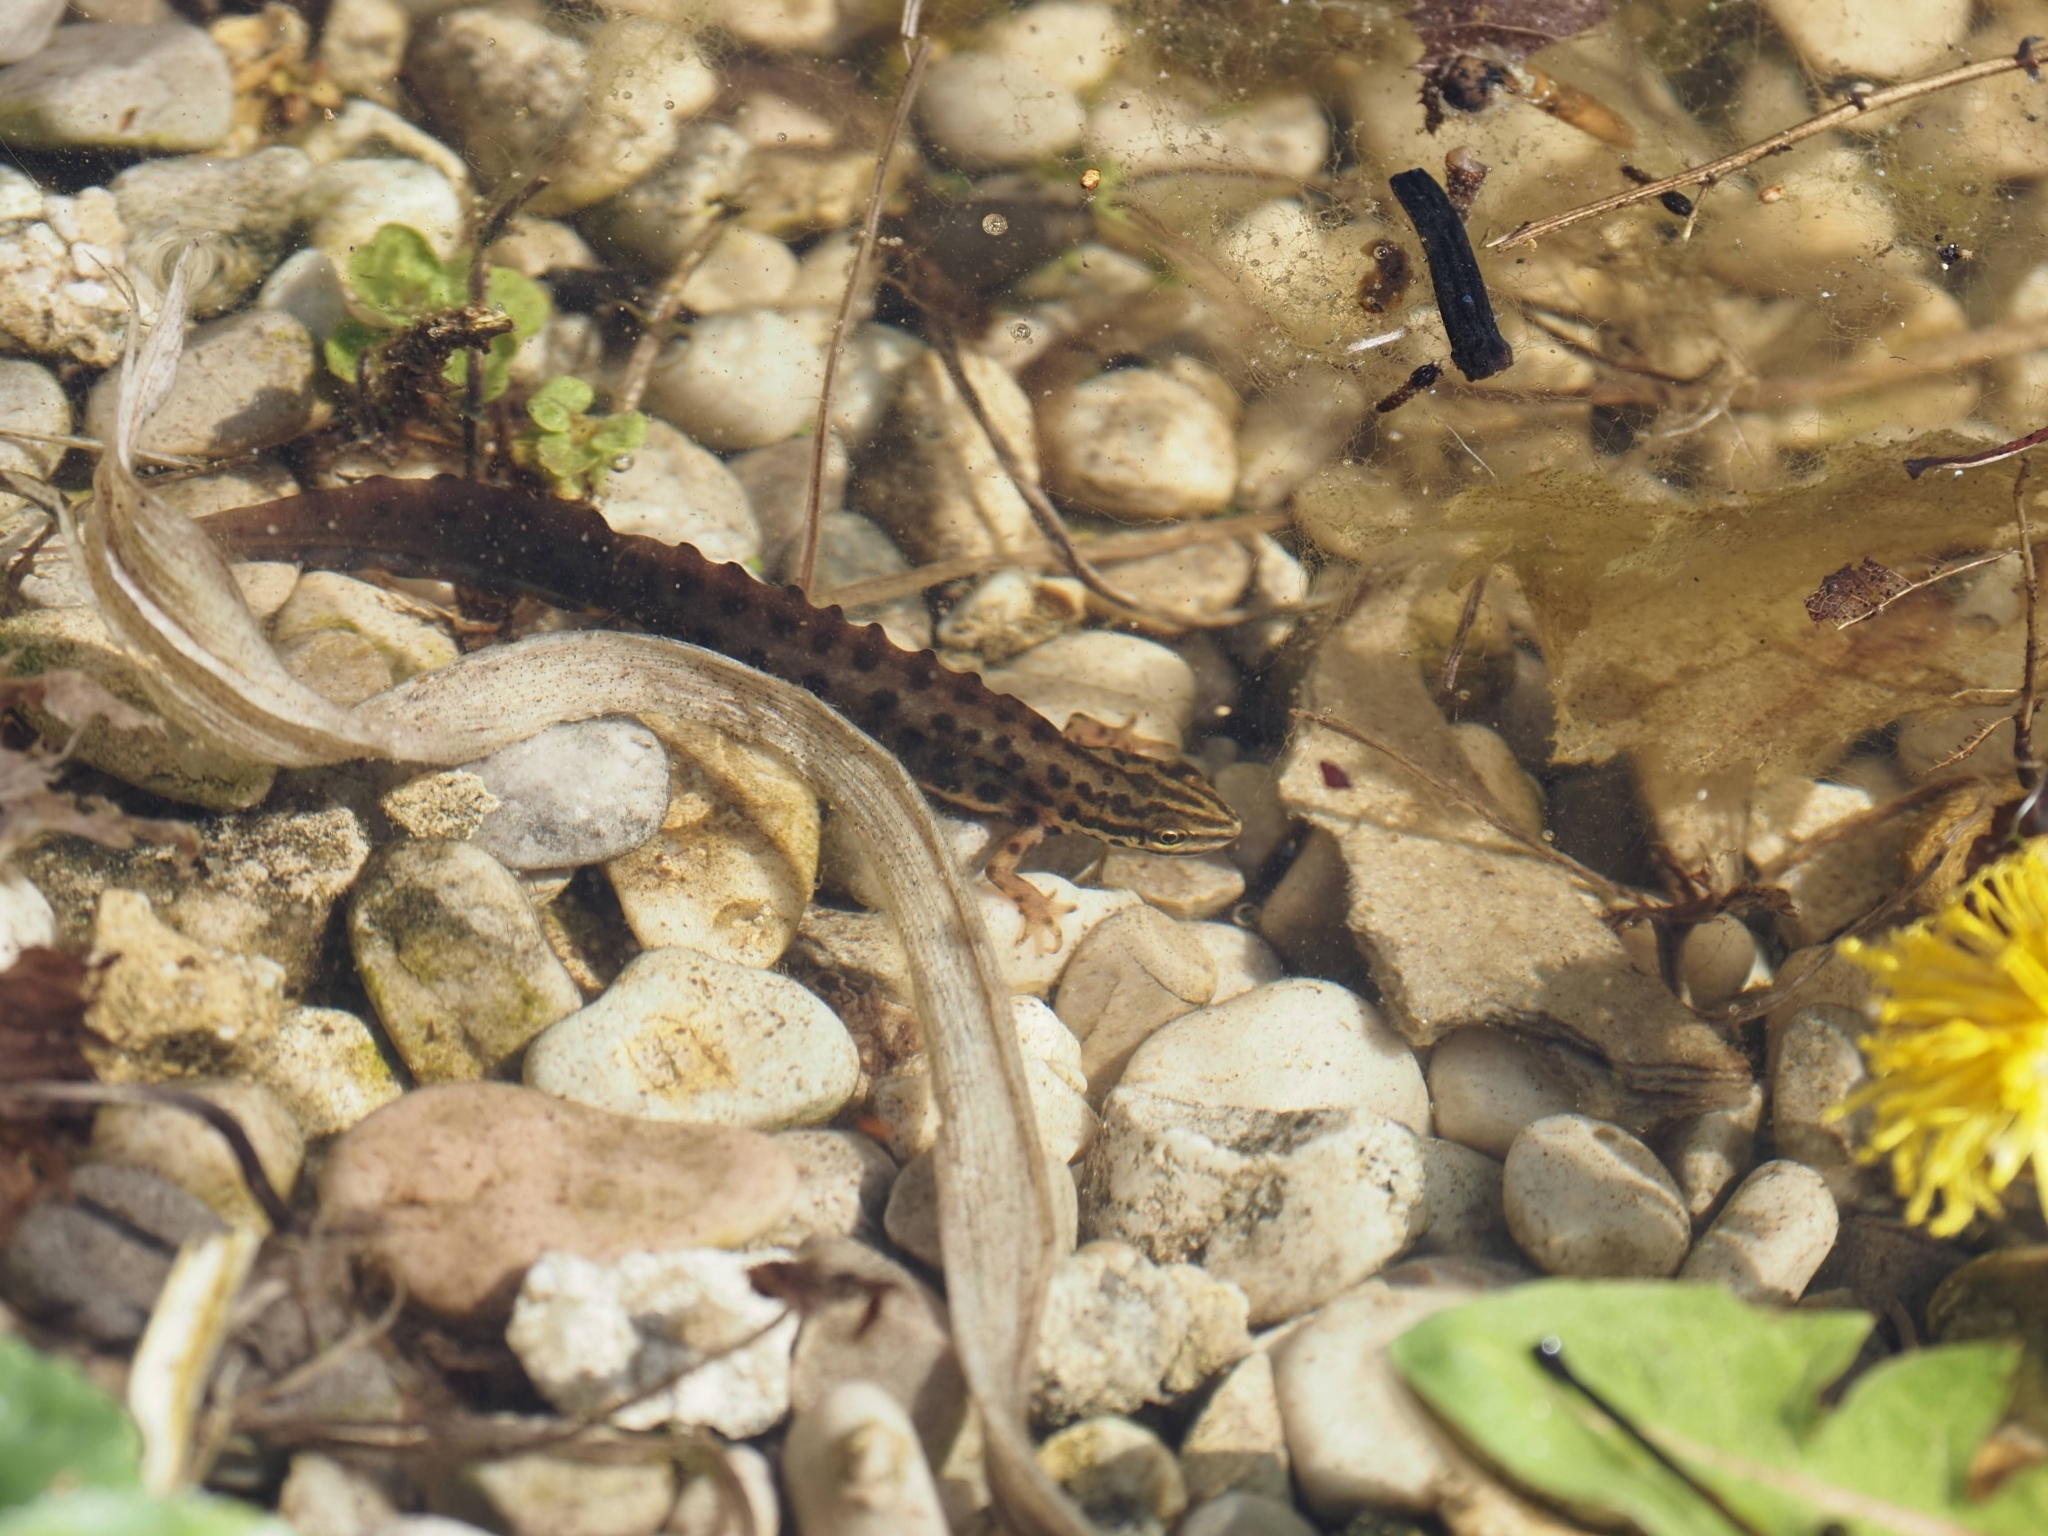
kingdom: Animalia
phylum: Chordata
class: Amphibia
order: Caudata
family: Salamandridae
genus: Lissotriton
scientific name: Lissotriton vulgaris
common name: Smooth newt
